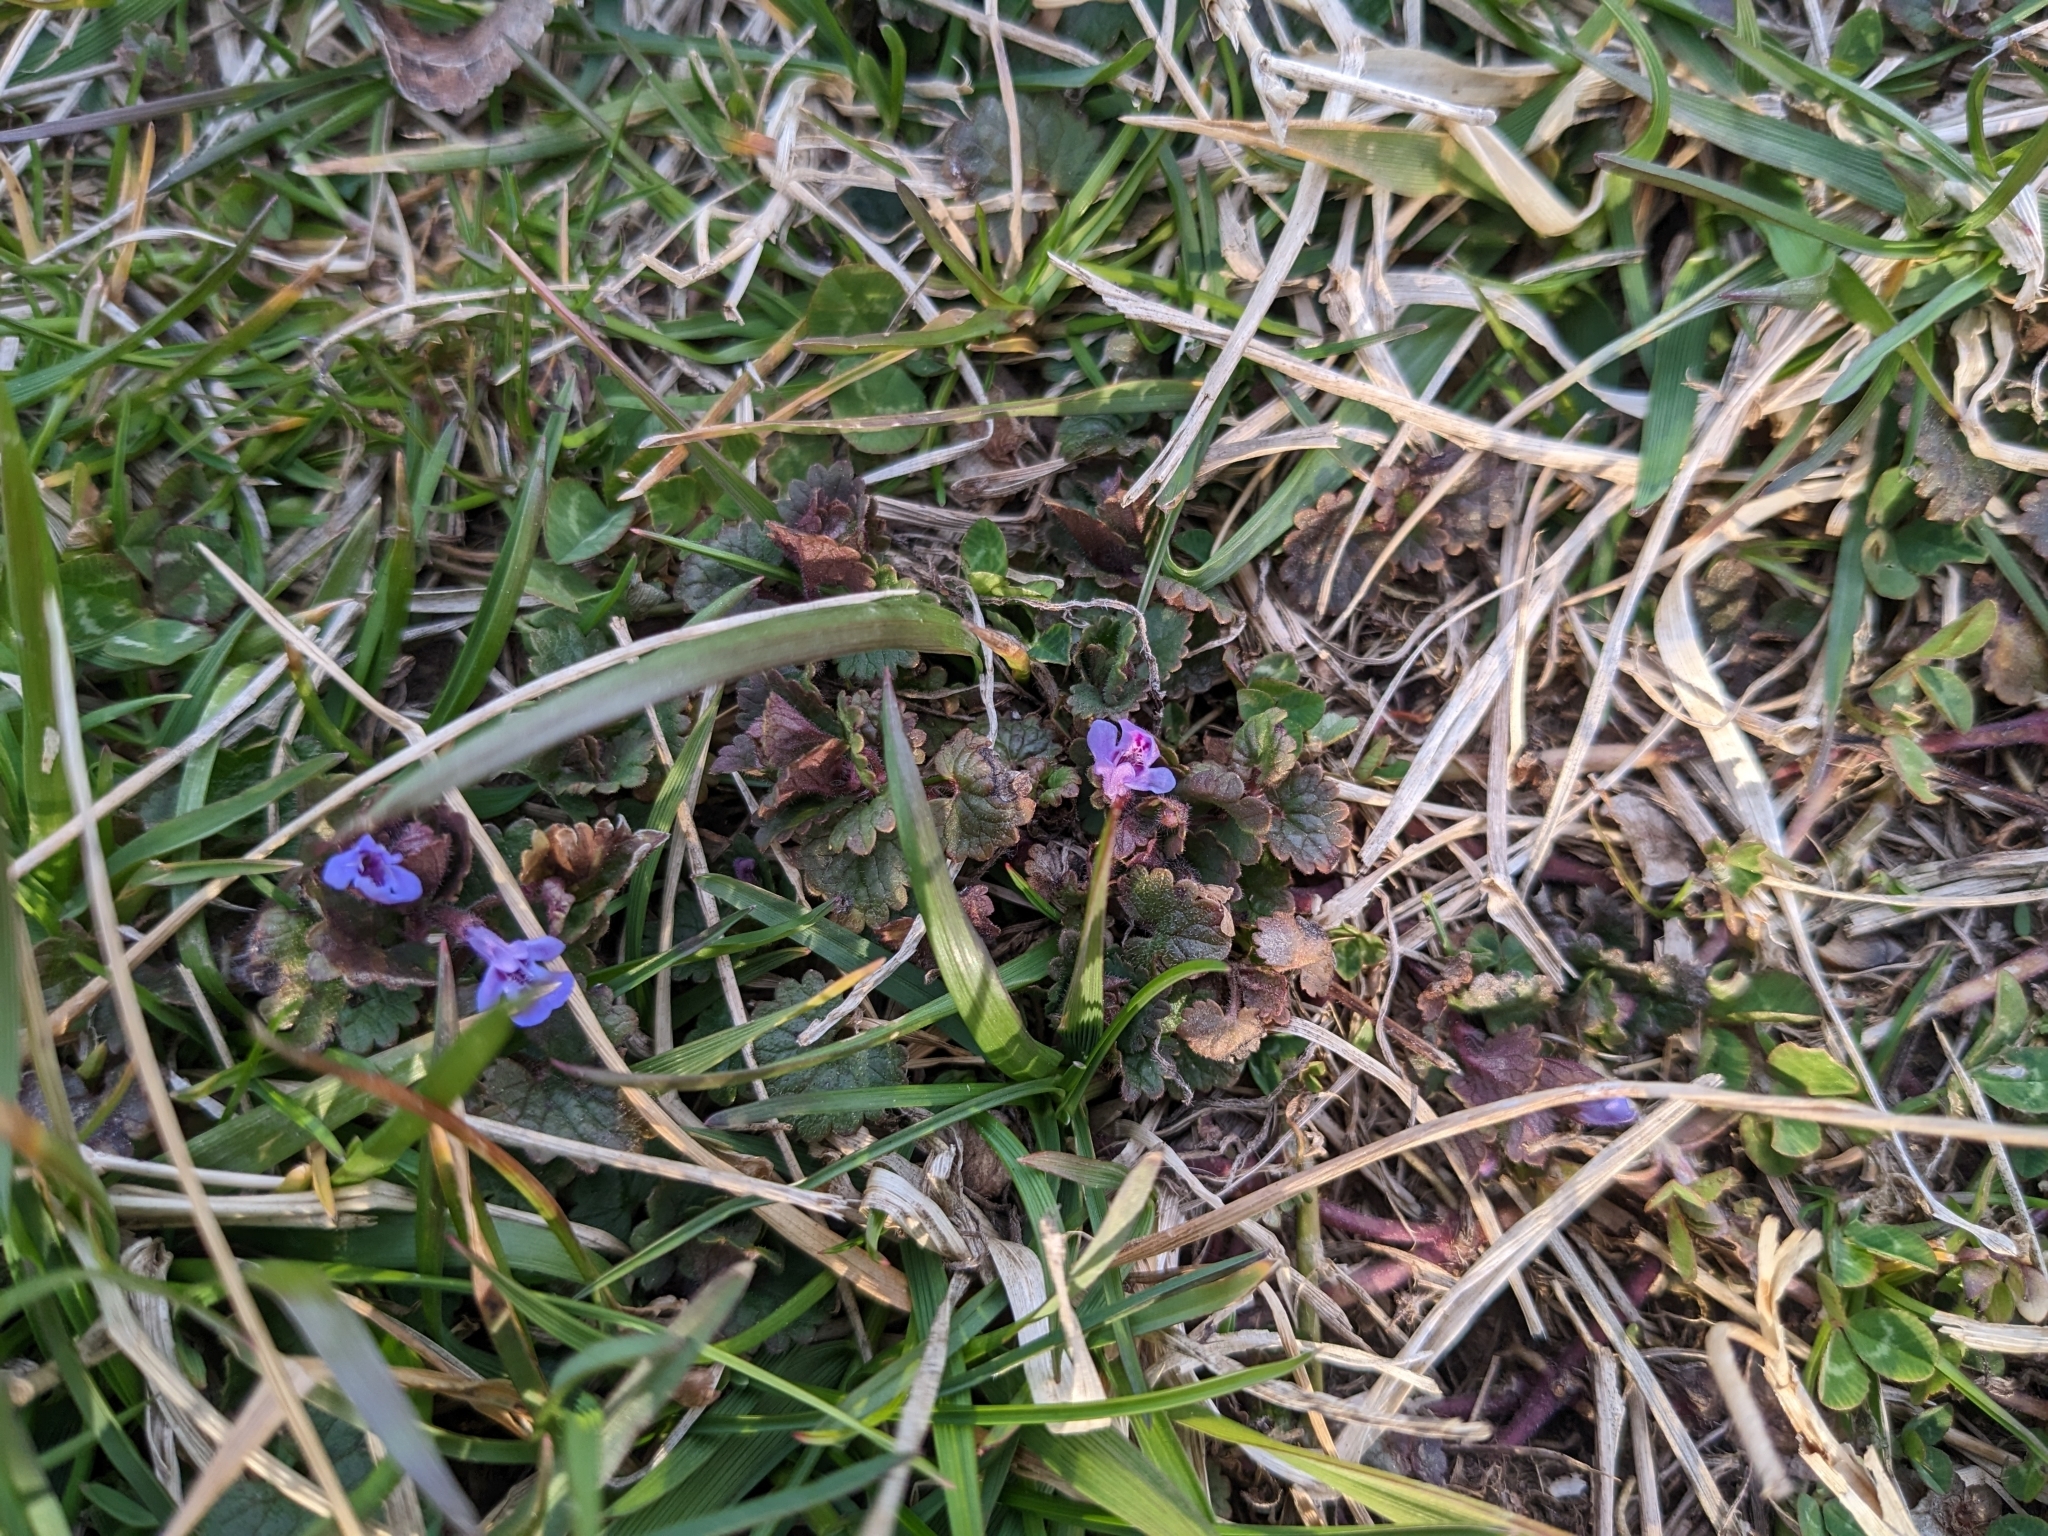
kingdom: Plantae
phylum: Tracheophyta
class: Magnoliopsida
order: Lamiales
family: Lamiaceae
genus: Glechoma
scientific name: Glechoma hederacea
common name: Ground ivy
